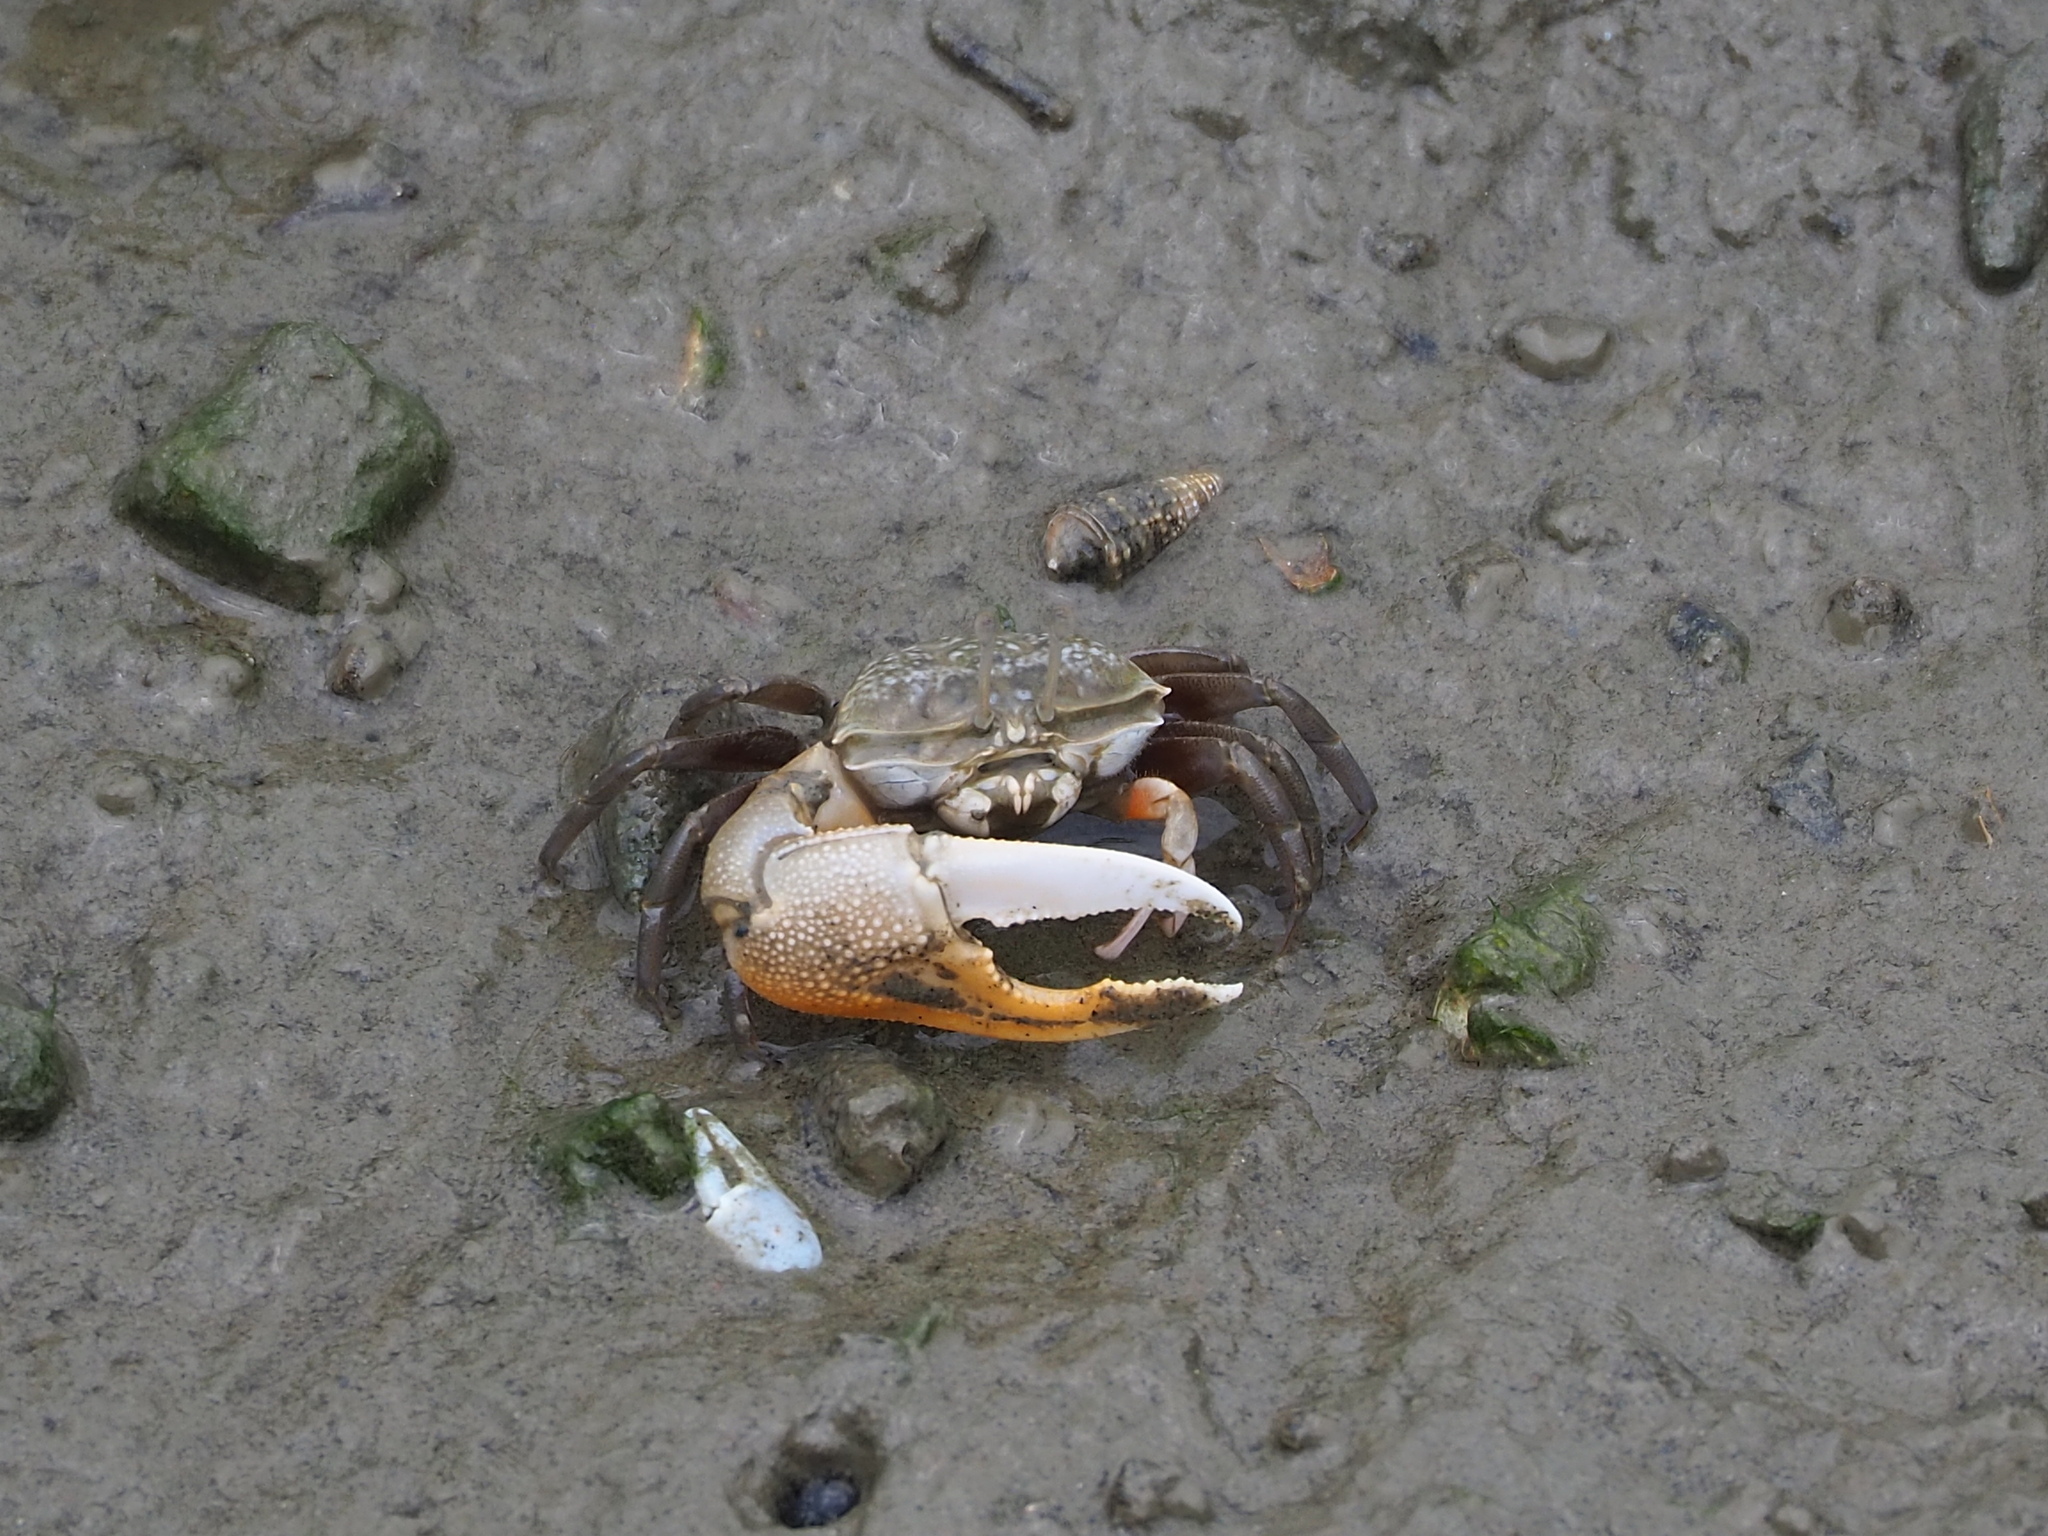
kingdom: Animalia
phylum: Arthropoda
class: Malacostraca
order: Decapoda
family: Ocypodidae
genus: Gelasimus
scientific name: Gelasimus borealis
